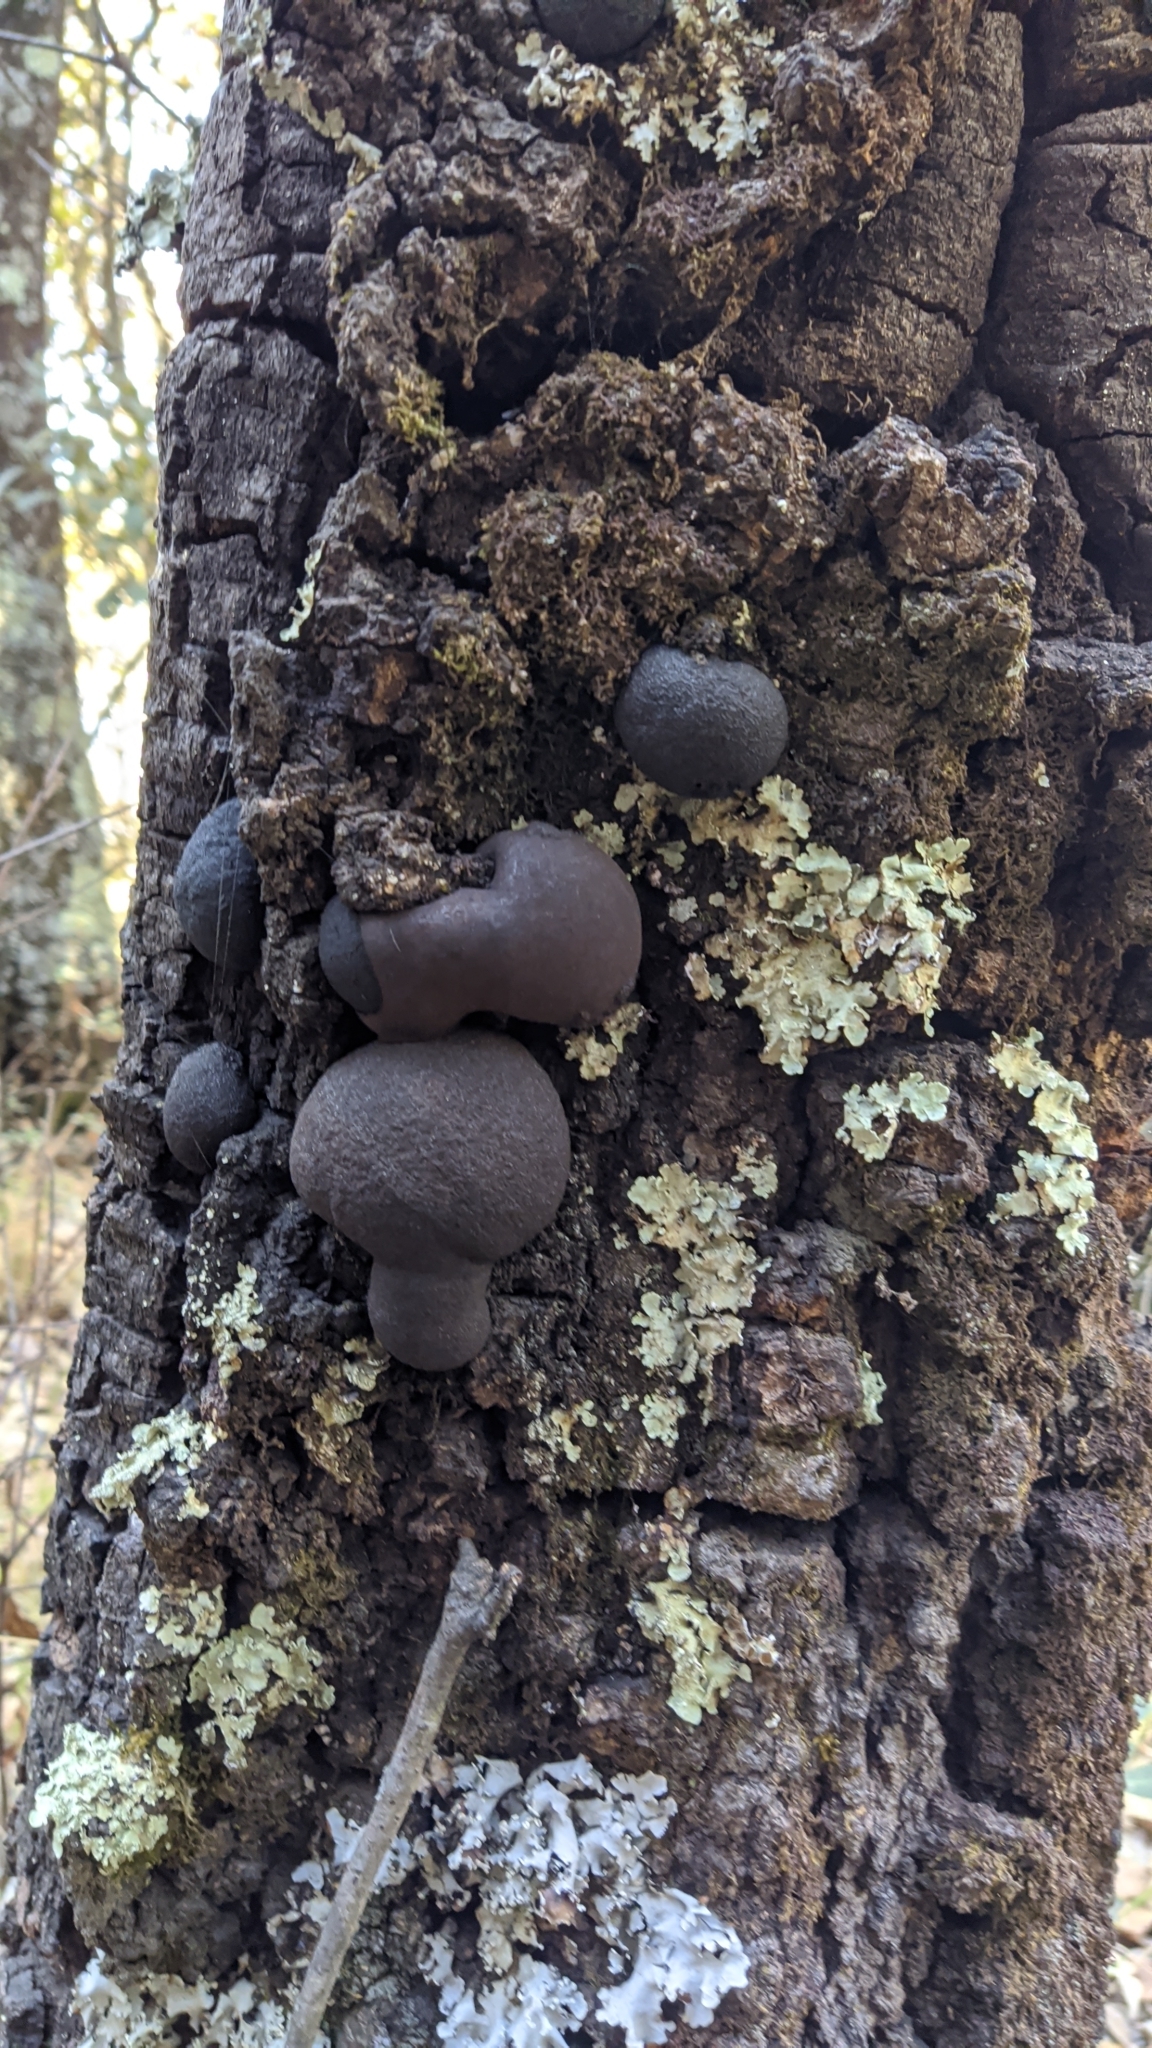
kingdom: Fungi
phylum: Ascomycota
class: Sordariomycetes
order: Xylariales
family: Hypoxylaceae
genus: Annulohypoxylon
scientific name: Annulohypoxylon thouarsianum
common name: Cramp balls
